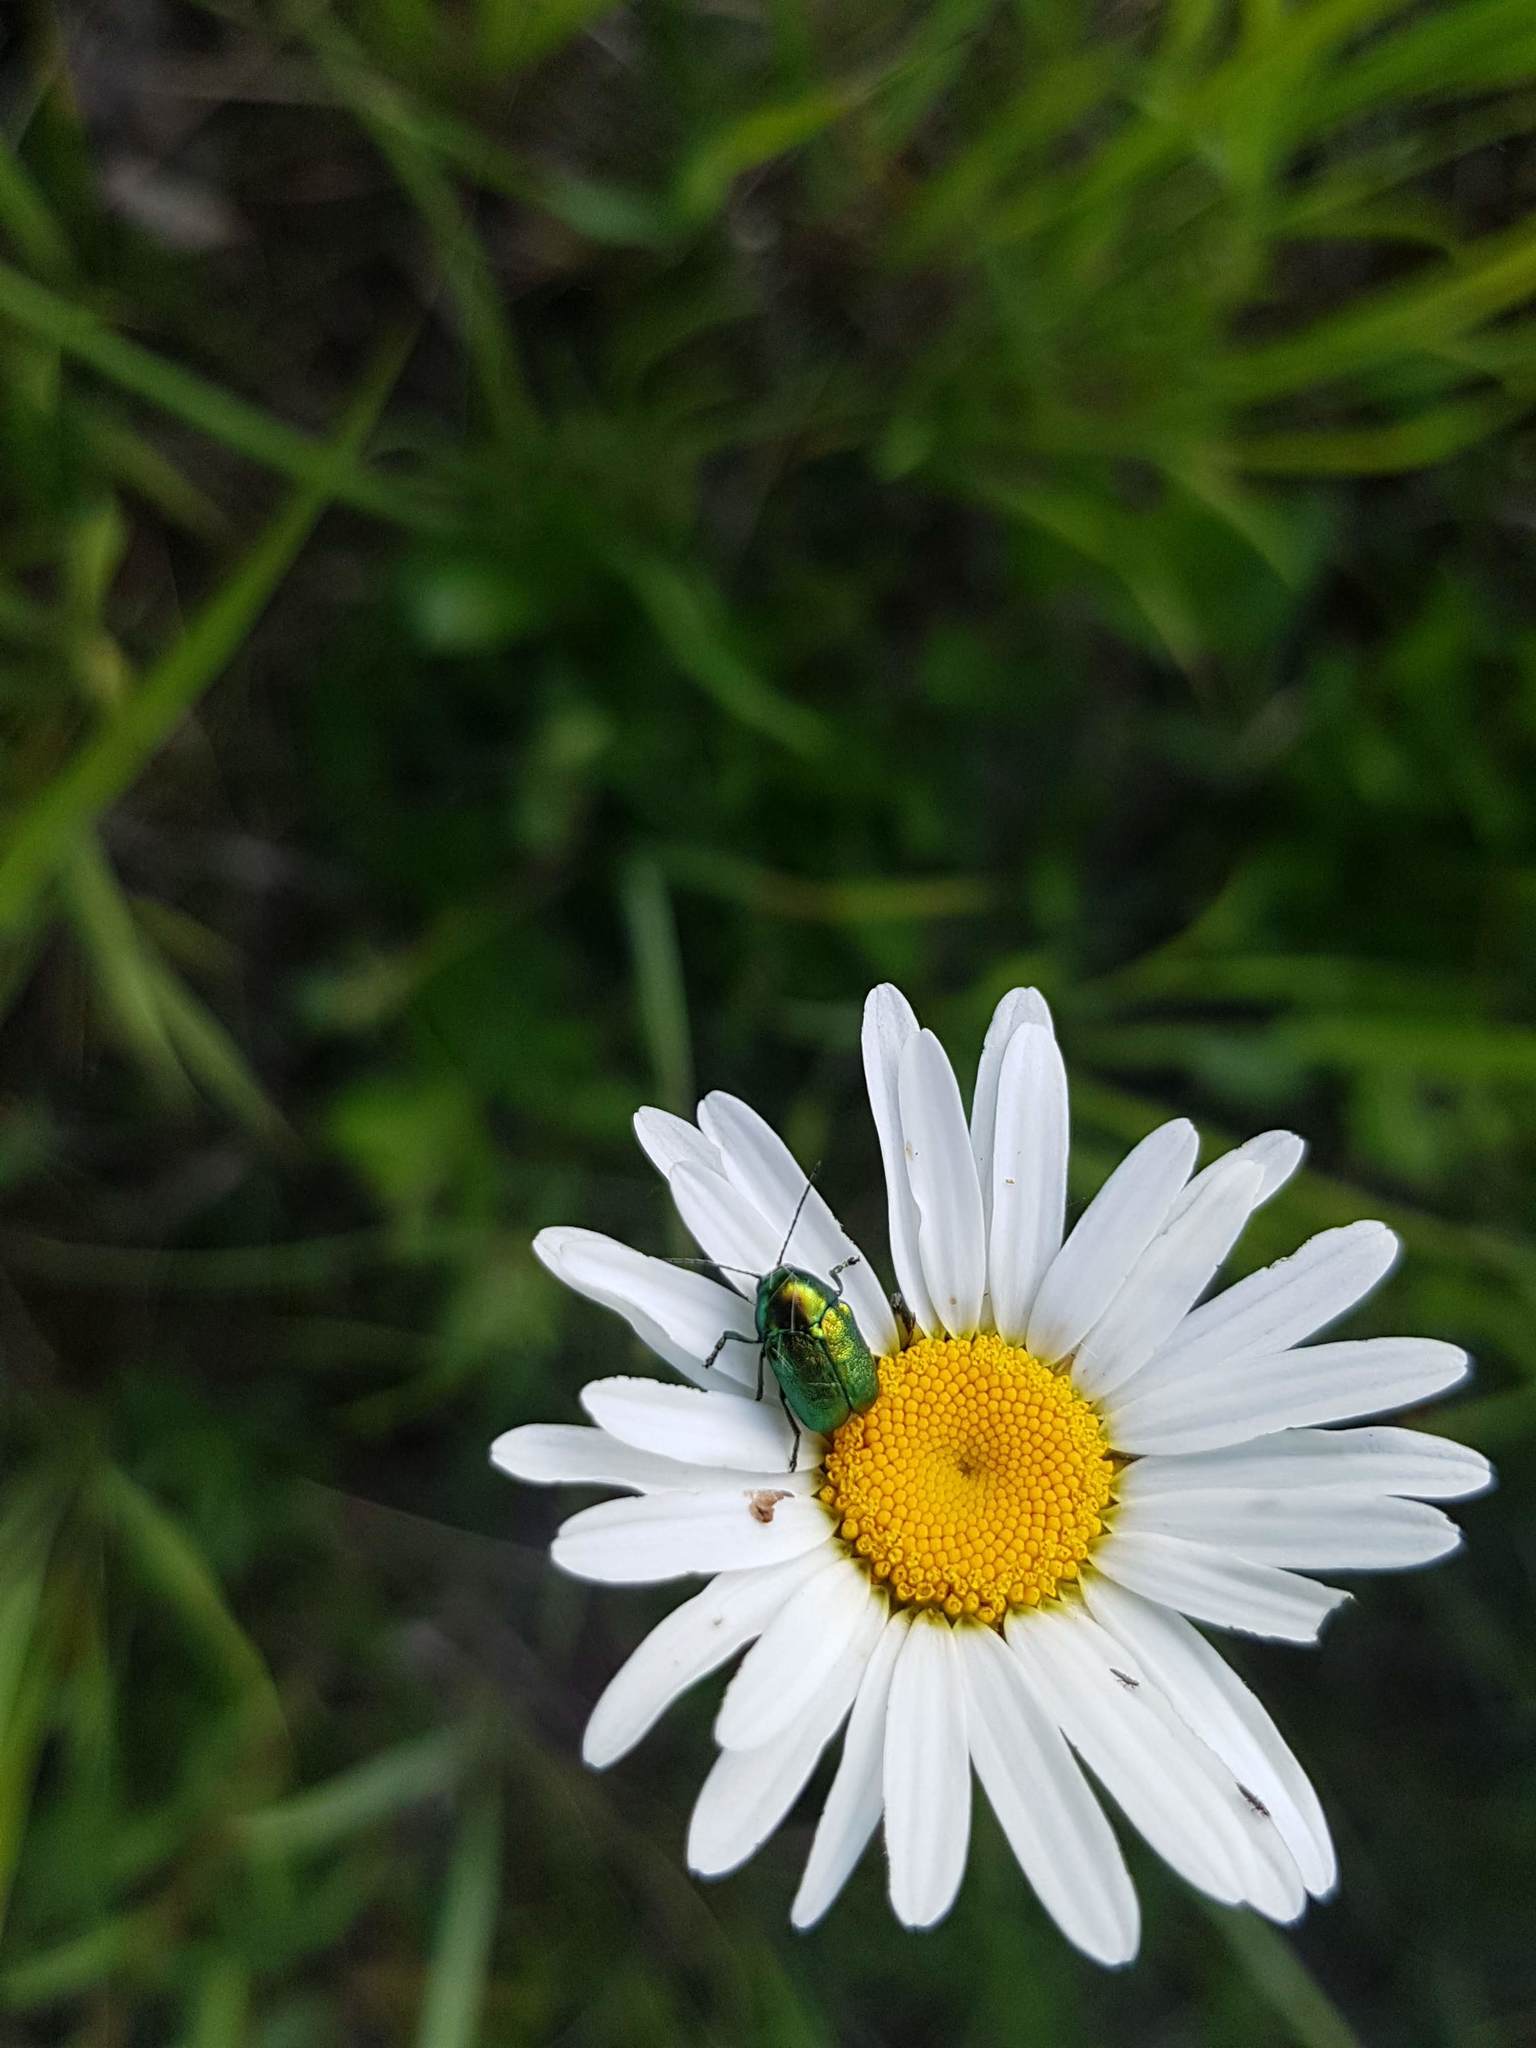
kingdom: Animalia
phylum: Arthropoda
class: Insecta
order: Coleoptera
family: Chrysomelidae
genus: Cryptocephalus
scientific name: Cryptocephalus sericeus
